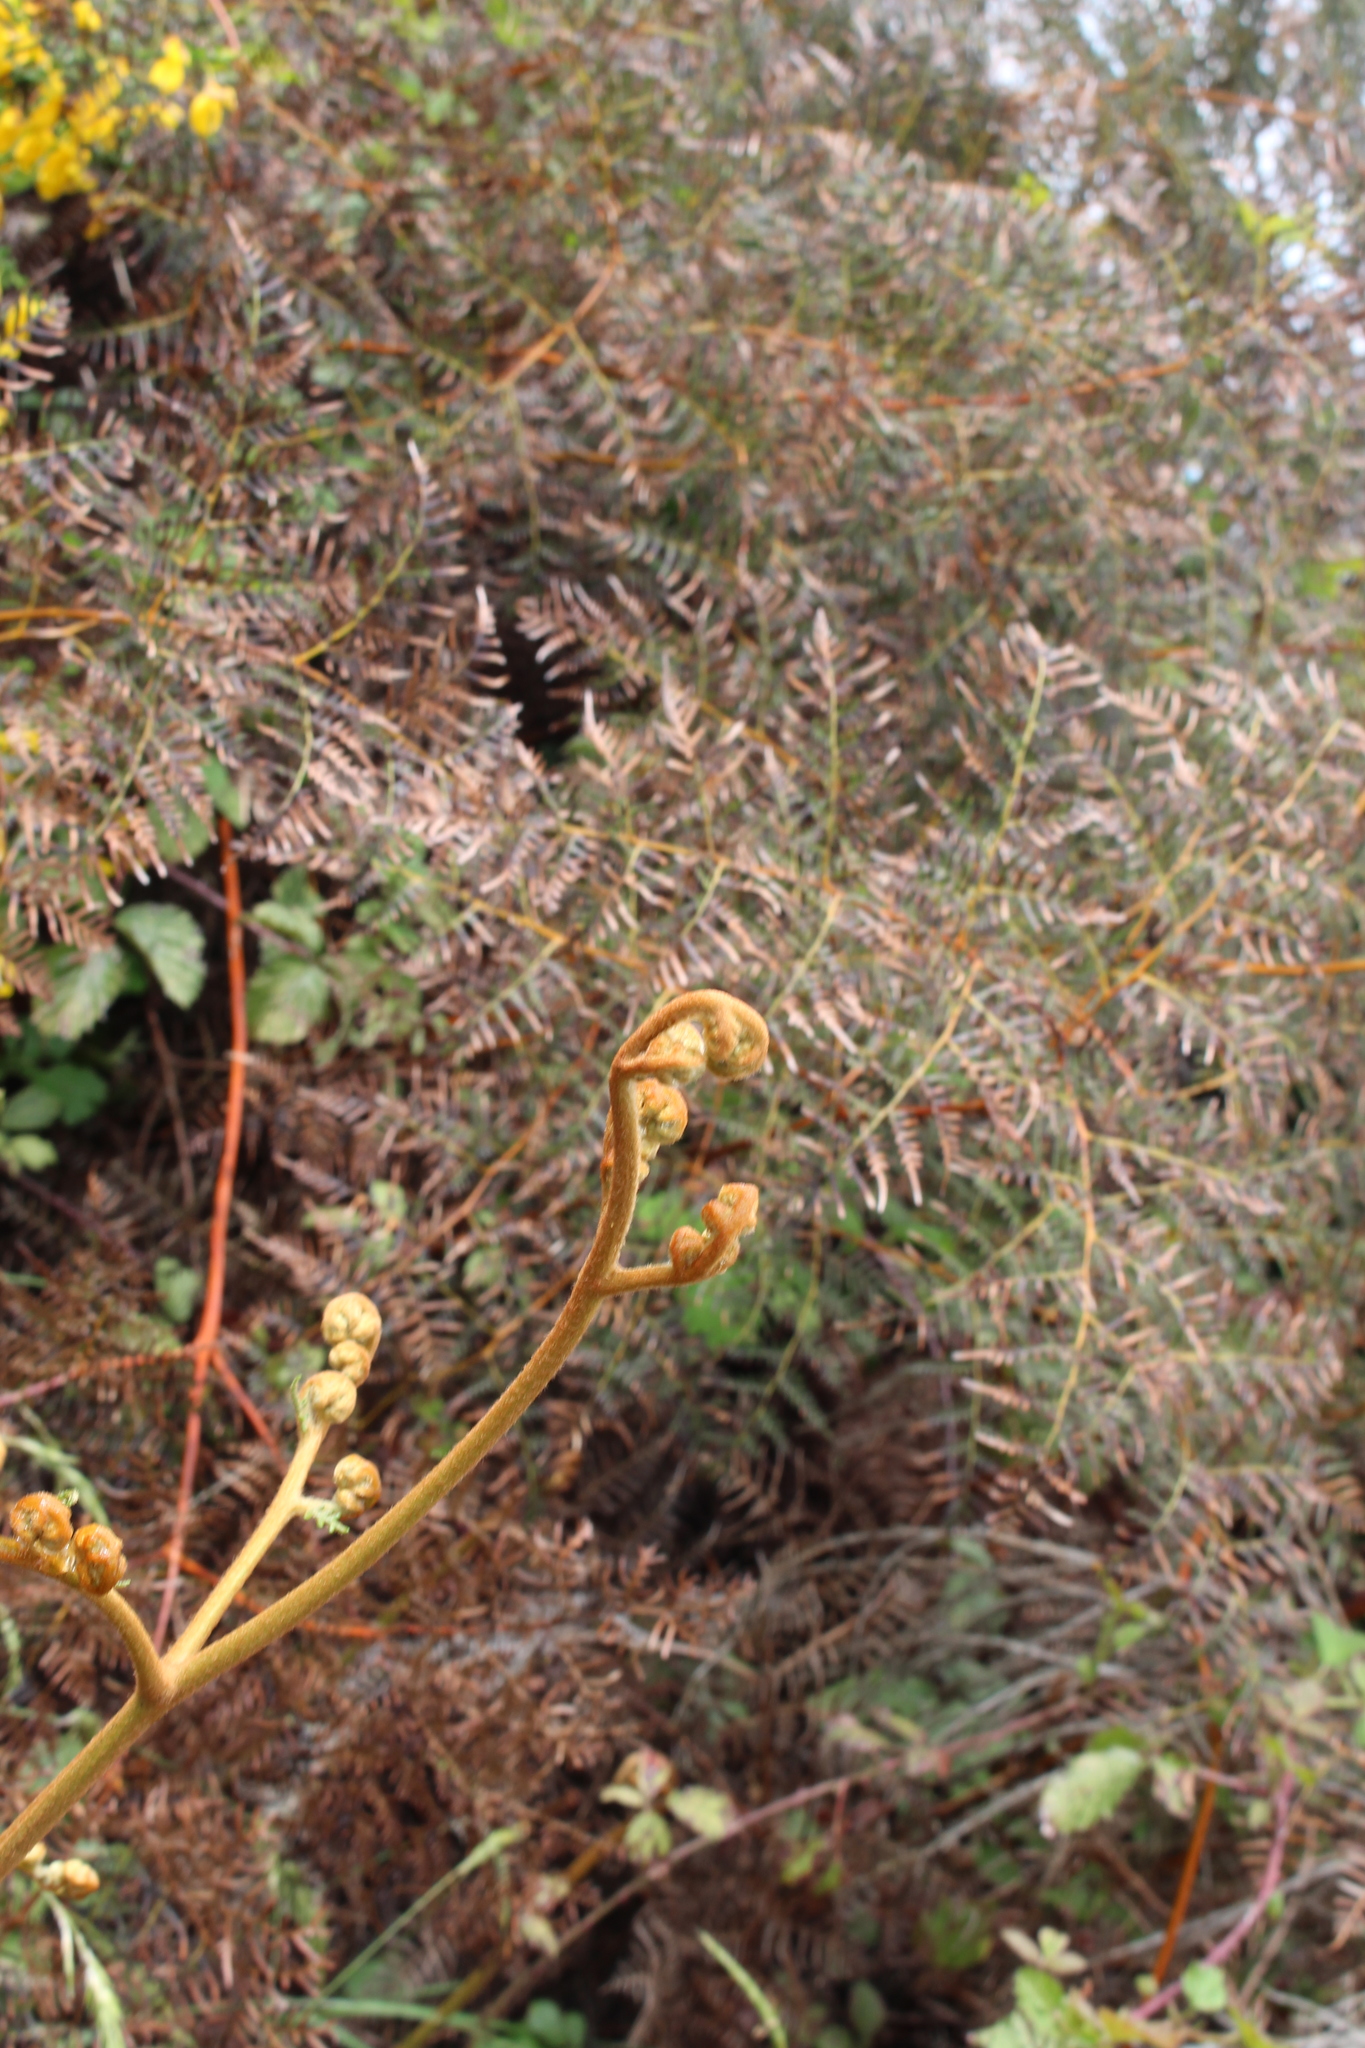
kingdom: Plantae
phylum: Tracheophyta
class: Polypodiopsida
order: Polypodiales
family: Dennstaedtiaceae
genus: Pteridium
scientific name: Pteridium esculentum
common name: Bracken fern
